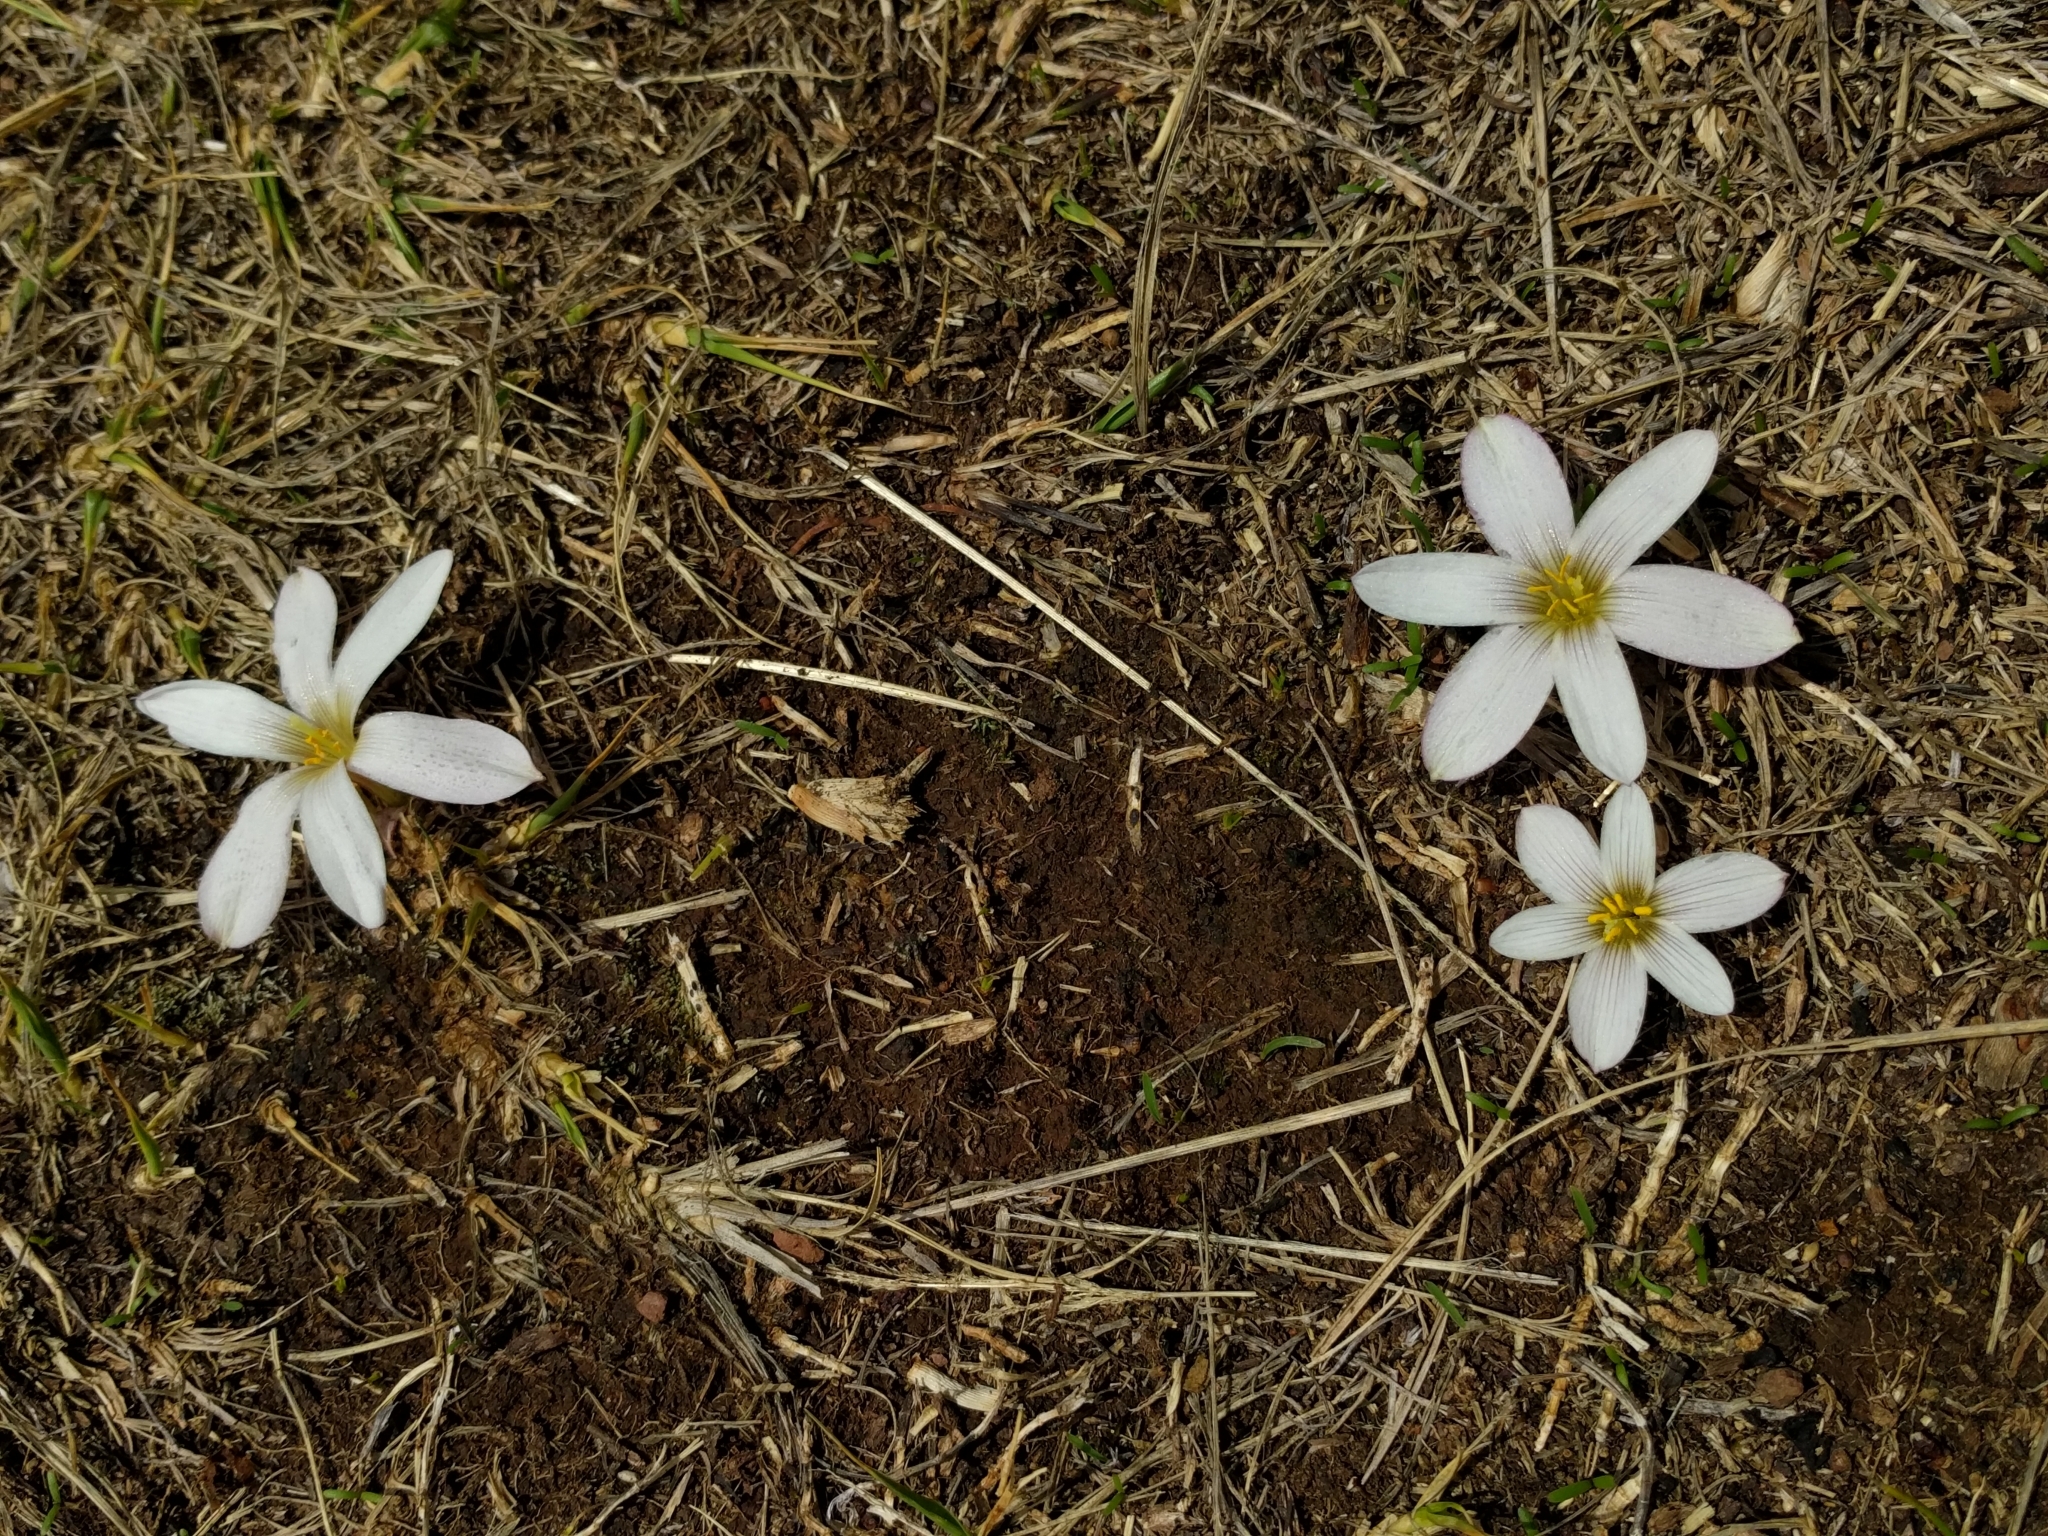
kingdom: Plantae
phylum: Tracheophyta
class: Liliopsida
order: Asparagales
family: Amaryllidaceae
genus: Zephyranthes
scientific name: Zephyranthes andina
